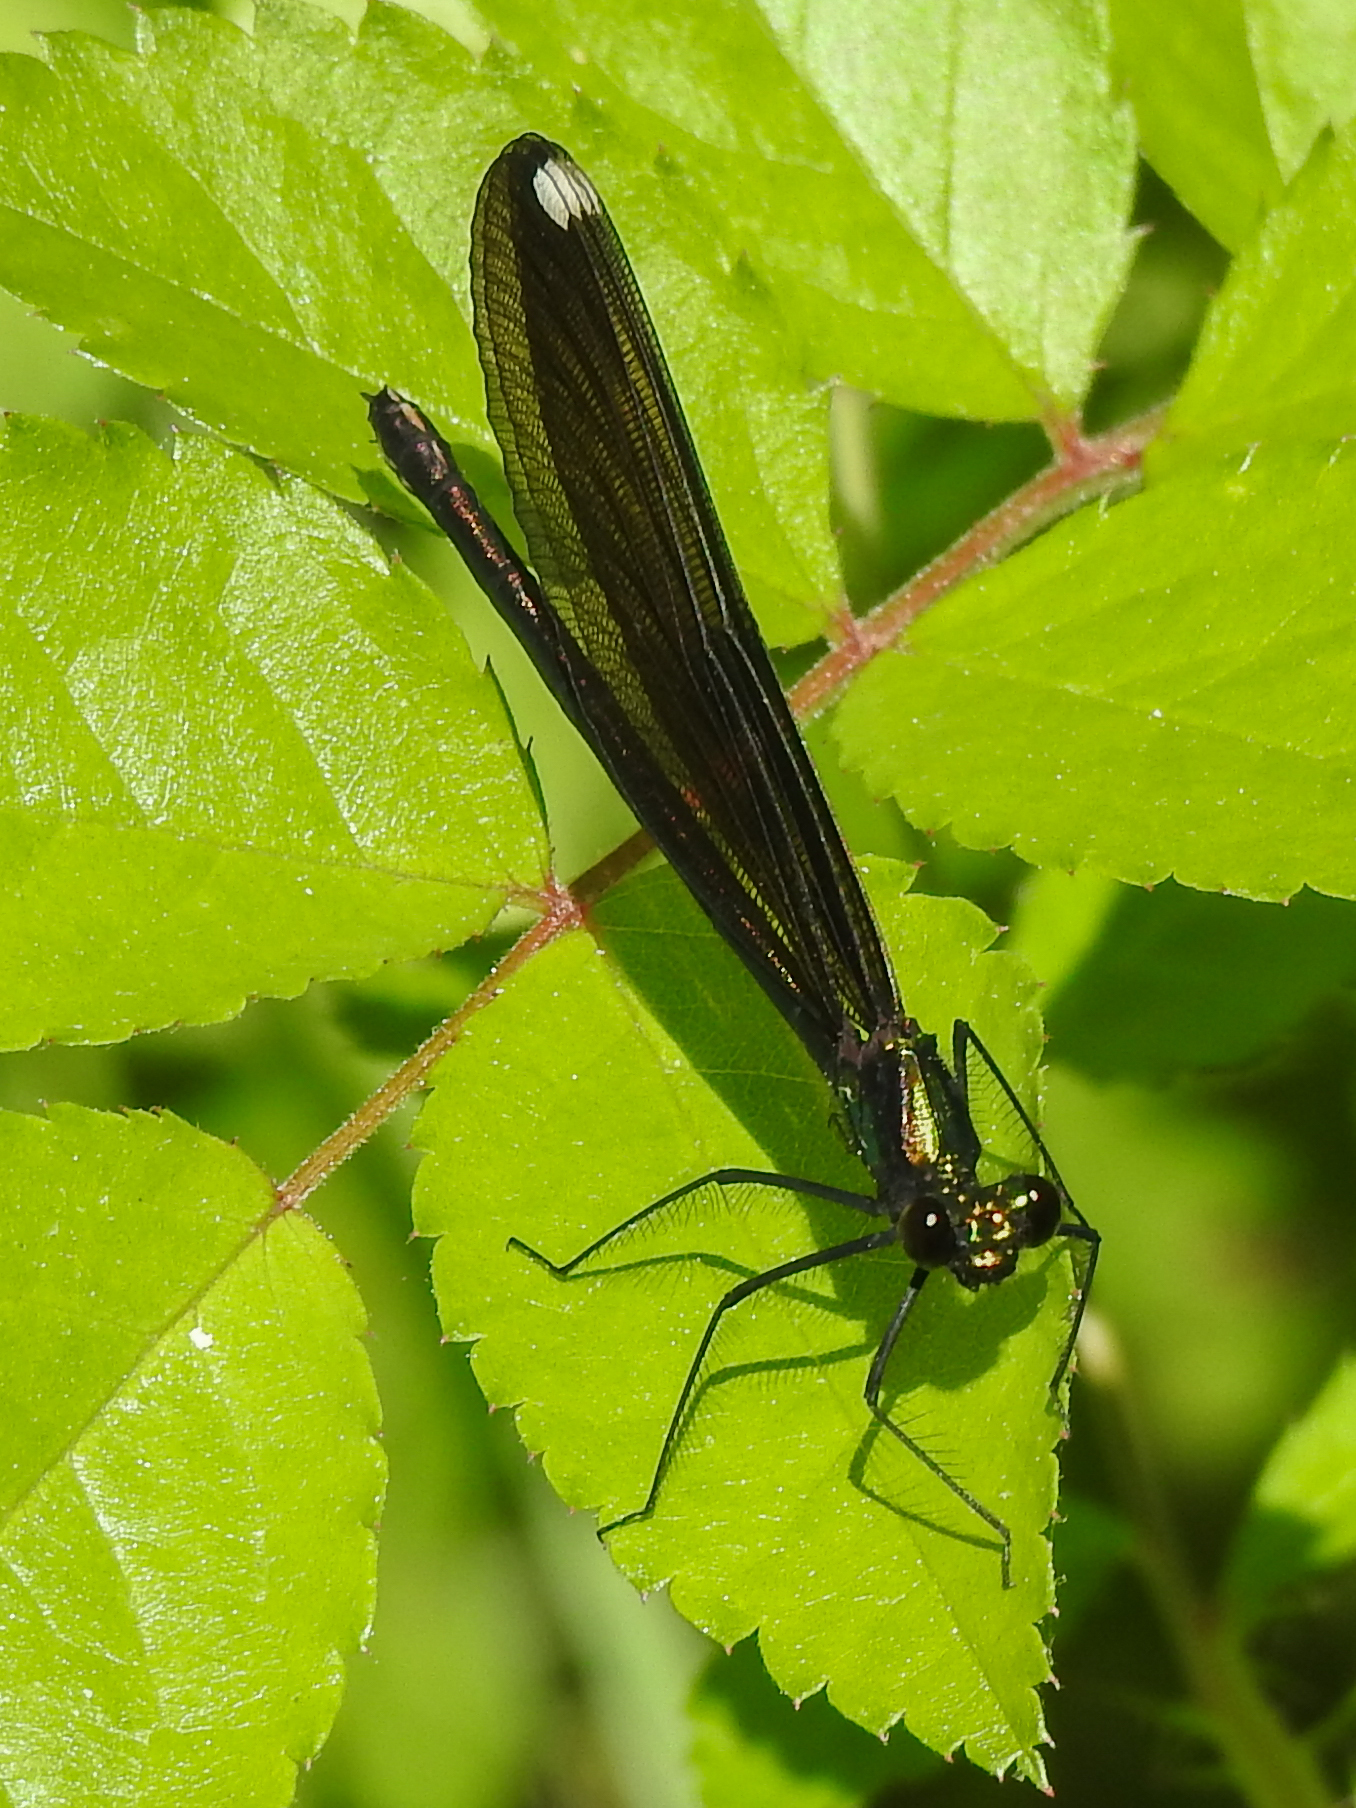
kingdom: Animalia
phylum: Arthropoda
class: Insecta
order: Odonata
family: Calopterygidae
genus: Calopteryx
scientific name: Calopteryx maculata
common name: Ebony jewelwing
